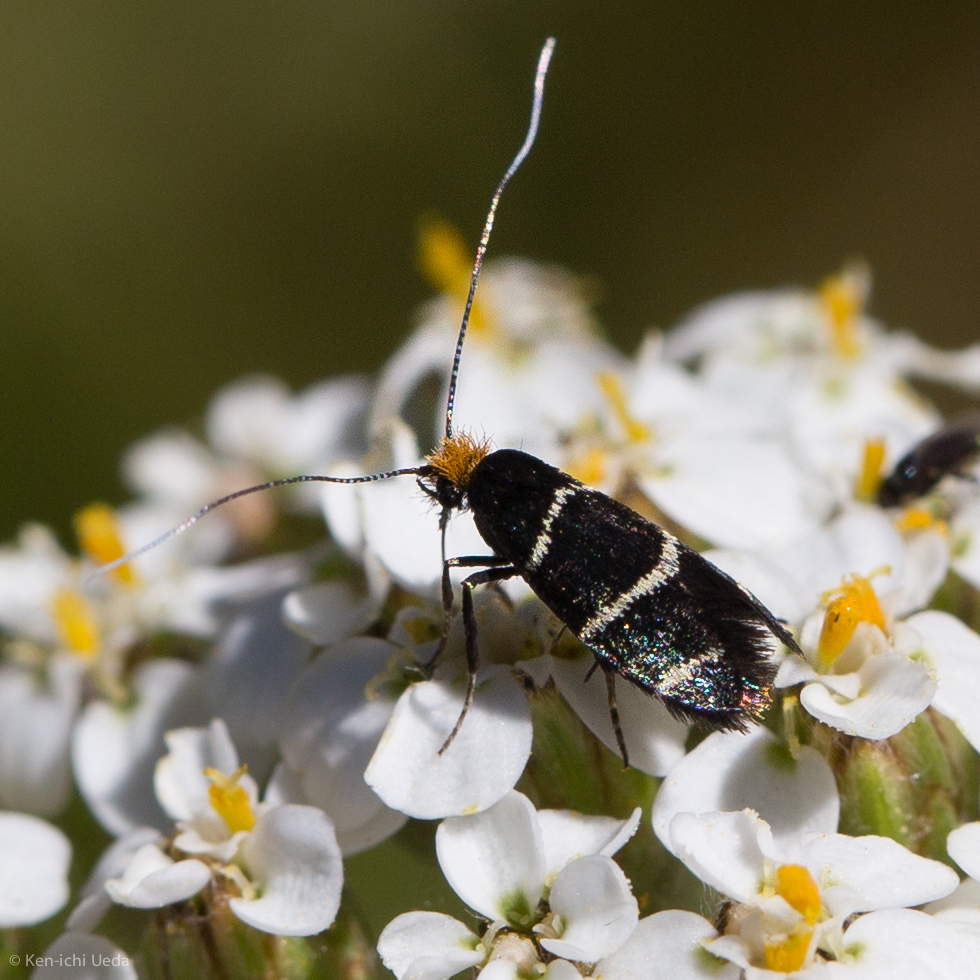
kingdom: Animalia
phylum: Arthropoda
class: Insecta
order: Lepidoptera
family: Adelidae
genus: Adela
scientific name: Adela trigrapha
